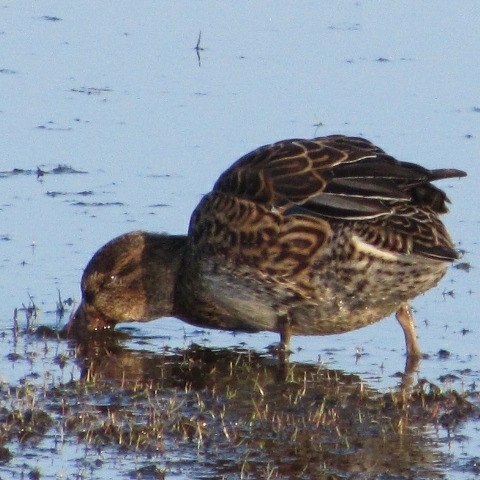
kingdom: Animalia
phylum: Chordata
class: Aves
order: Anseriformes
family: Anatidae
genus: Anas
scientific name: Anas crecca
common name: Eurasian teal
